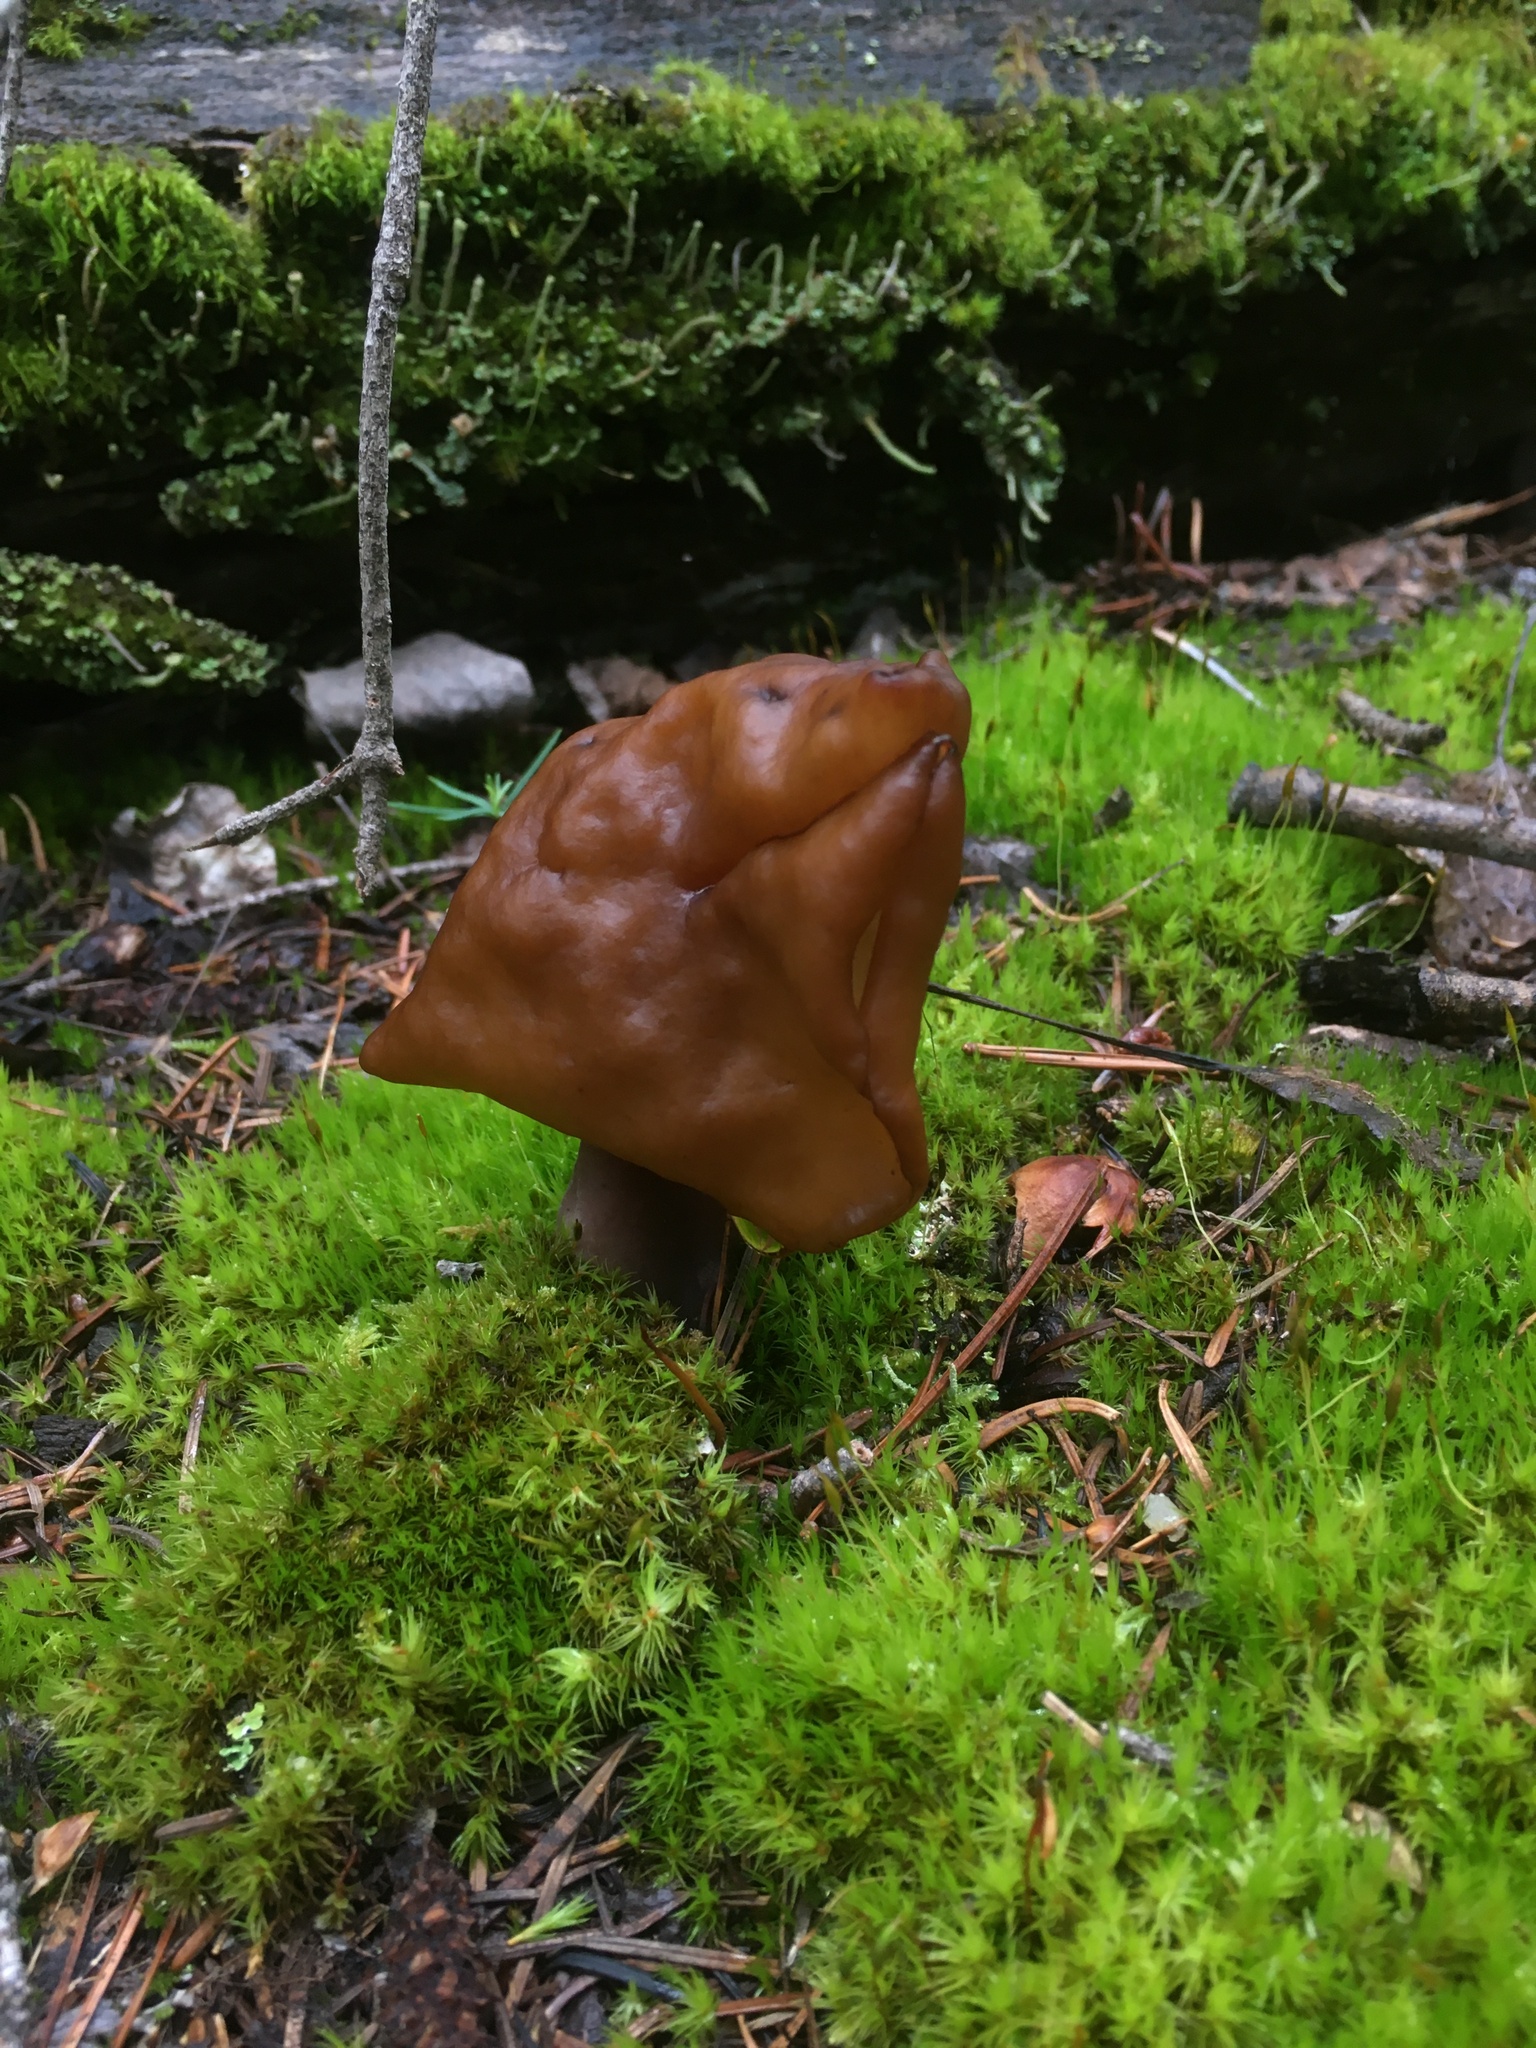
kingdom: Fungi
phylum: Ascomycota
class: Pezizomycetes
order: Pezizales
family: Discinaceae
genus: Gyromitra
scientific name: Gyromitra infula
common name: Pouched false morel
